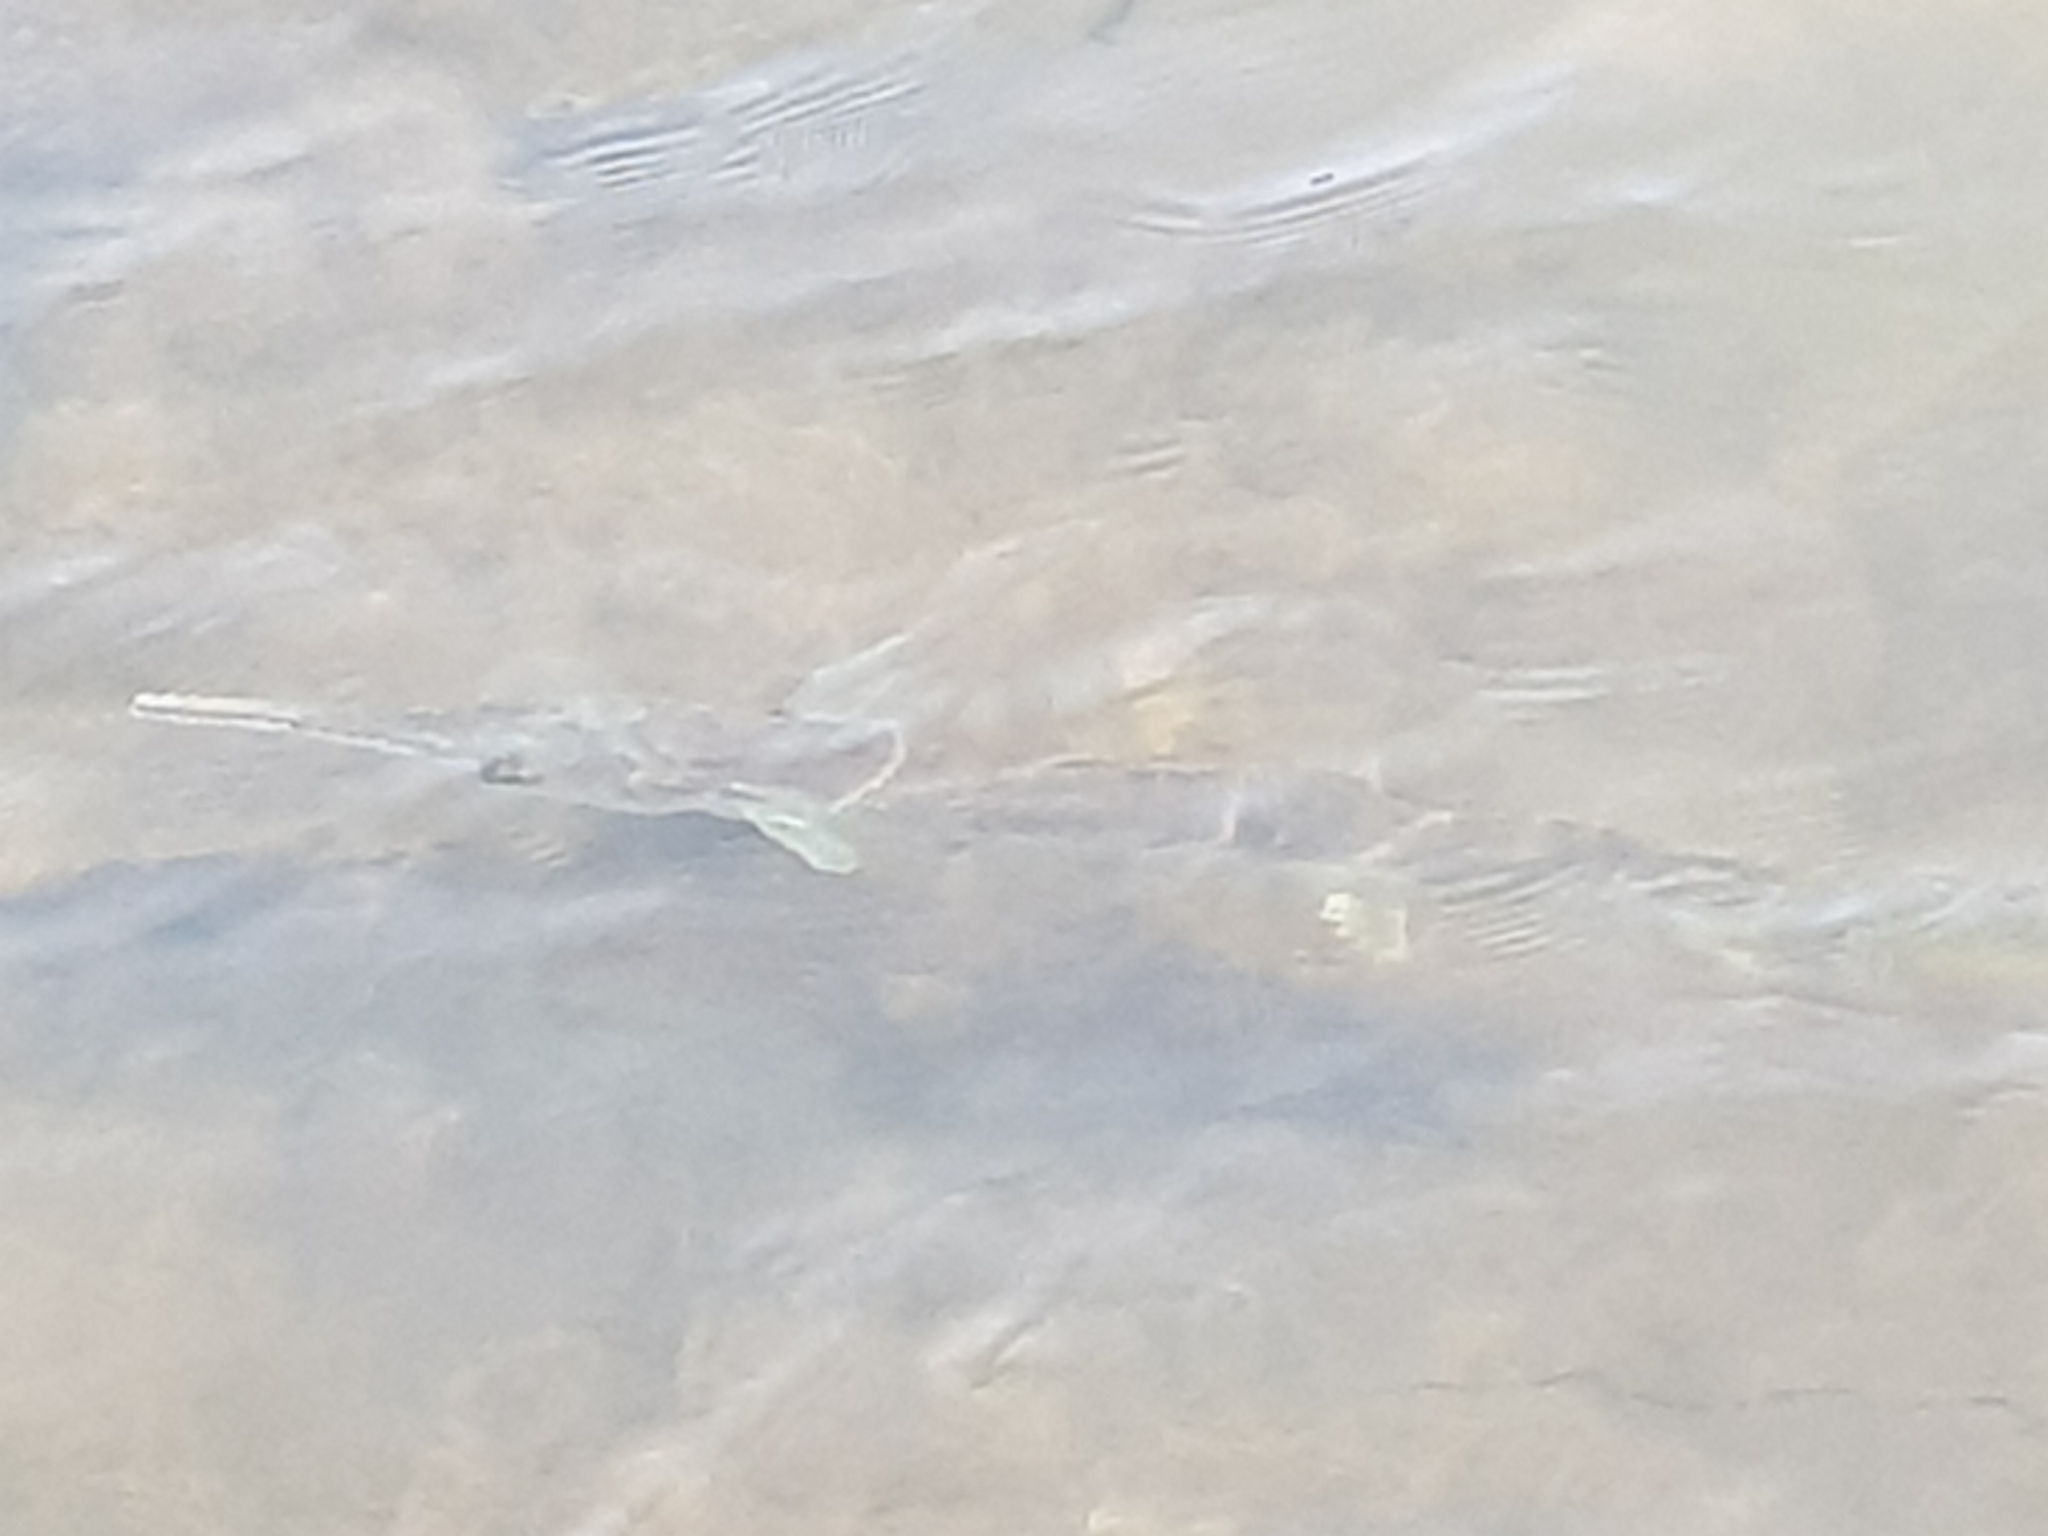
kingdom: Animalia
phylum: Chordata
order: Beloniformes
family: Belonidae
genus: Tylosurus
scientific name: Tylosurus gavialoides
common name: Stout longtom
